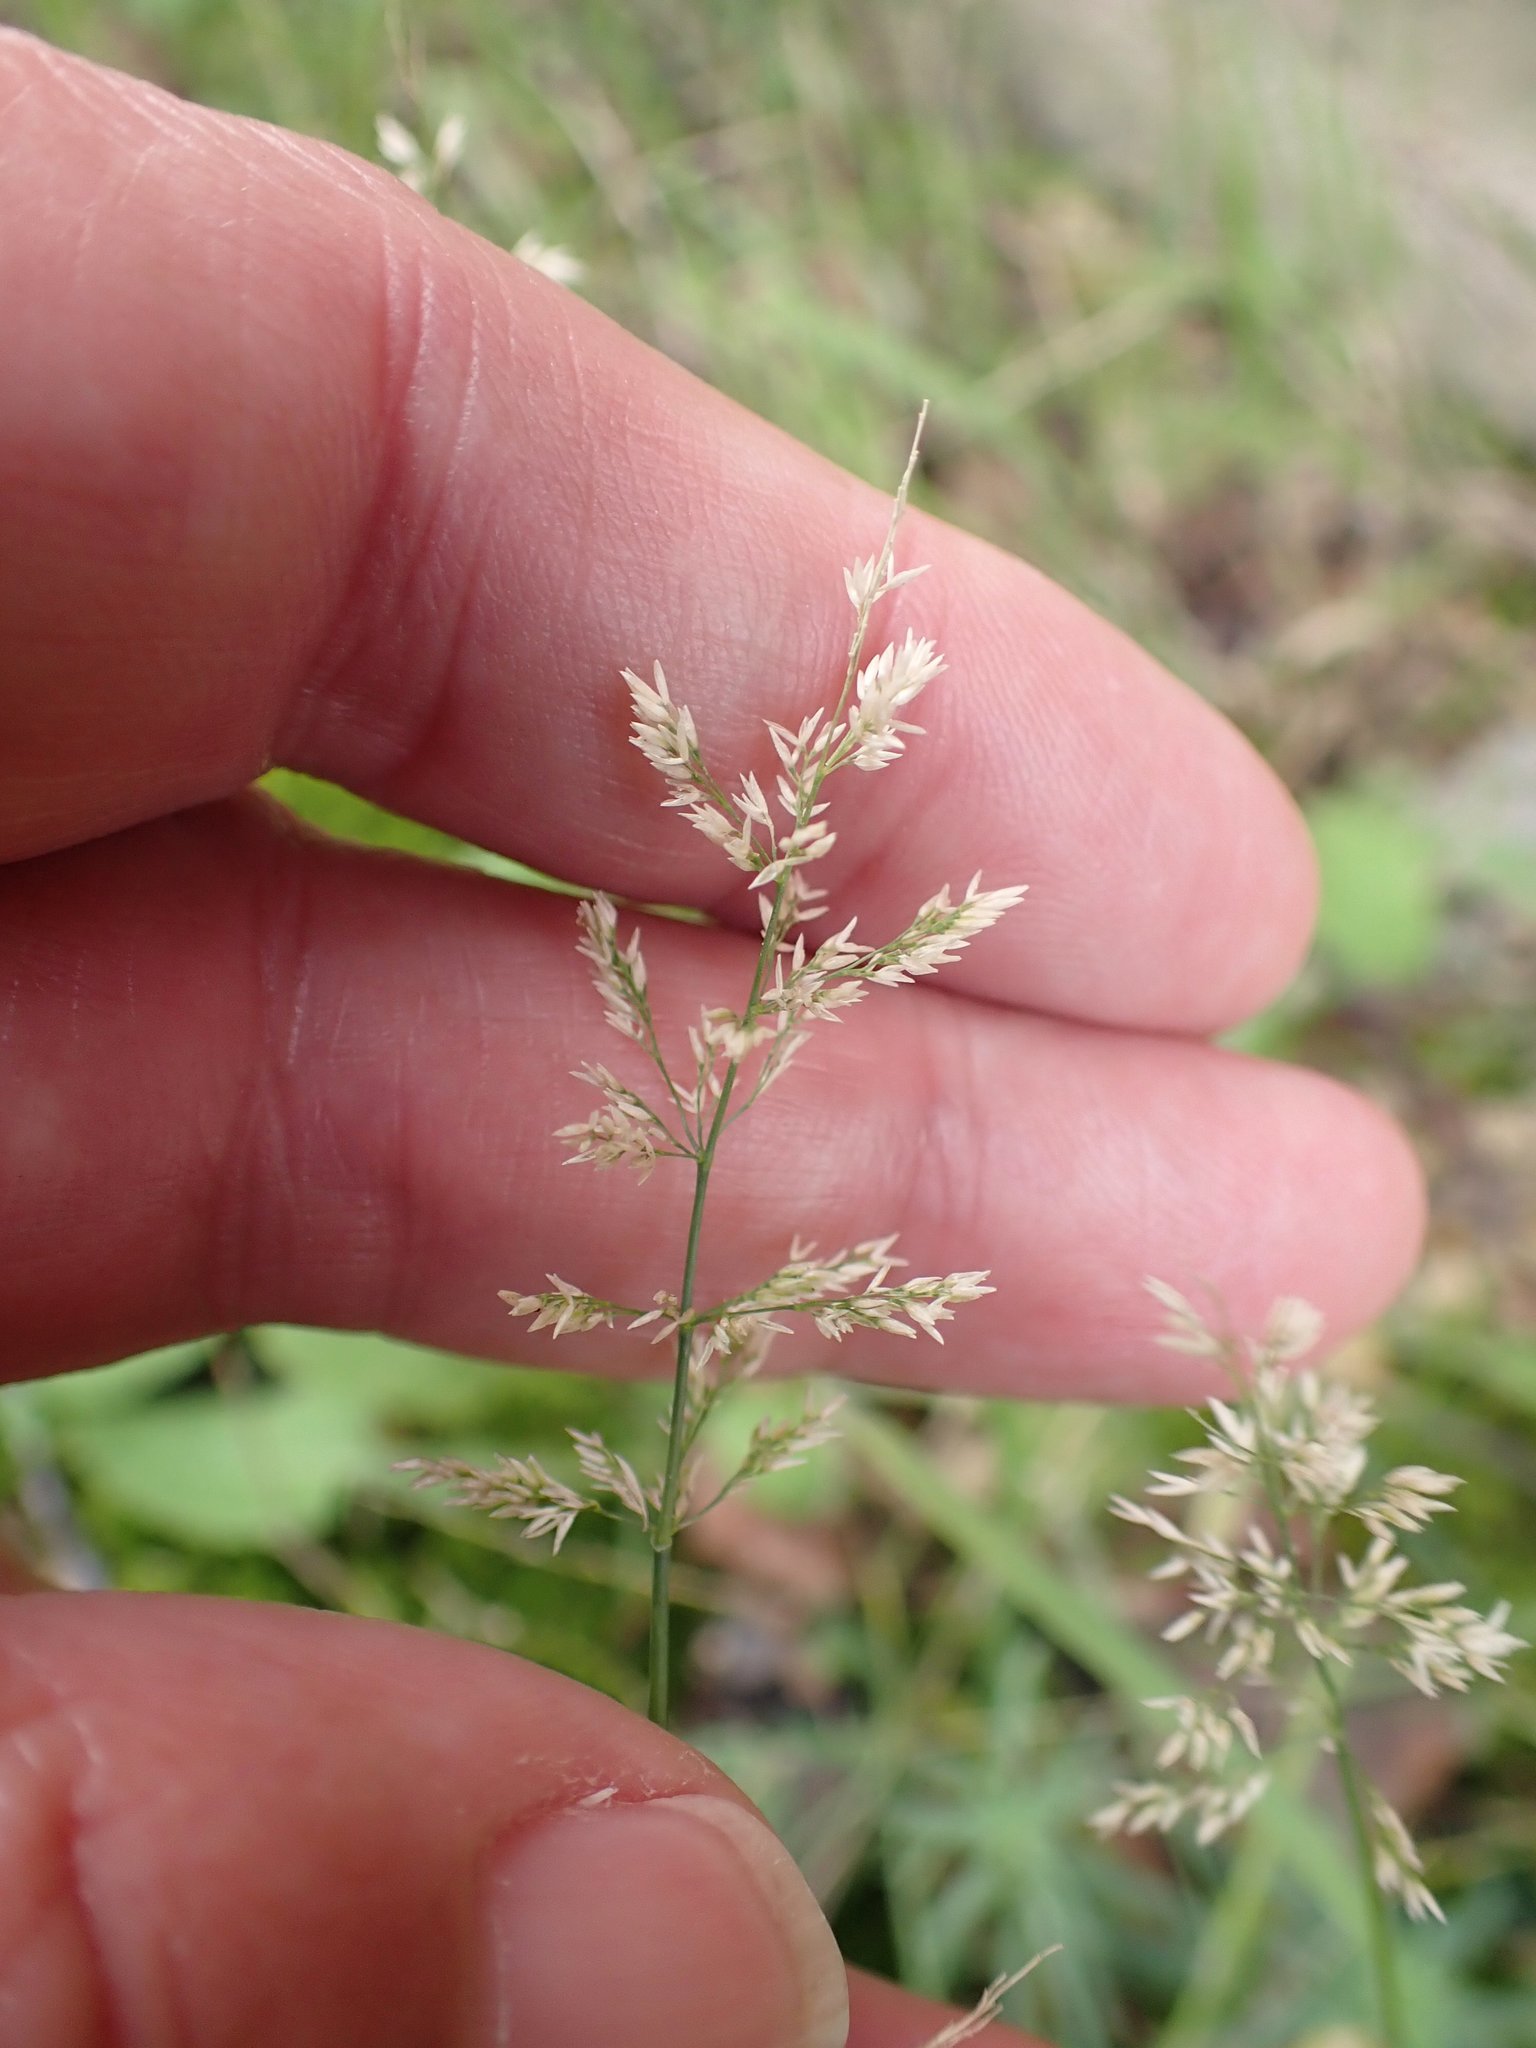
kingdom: Plantae
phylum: Tracheophyta
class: Liliopsida
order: Poales
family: Poaceae
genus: Polypogon
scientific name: Polypogon viridis
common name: Water bent
